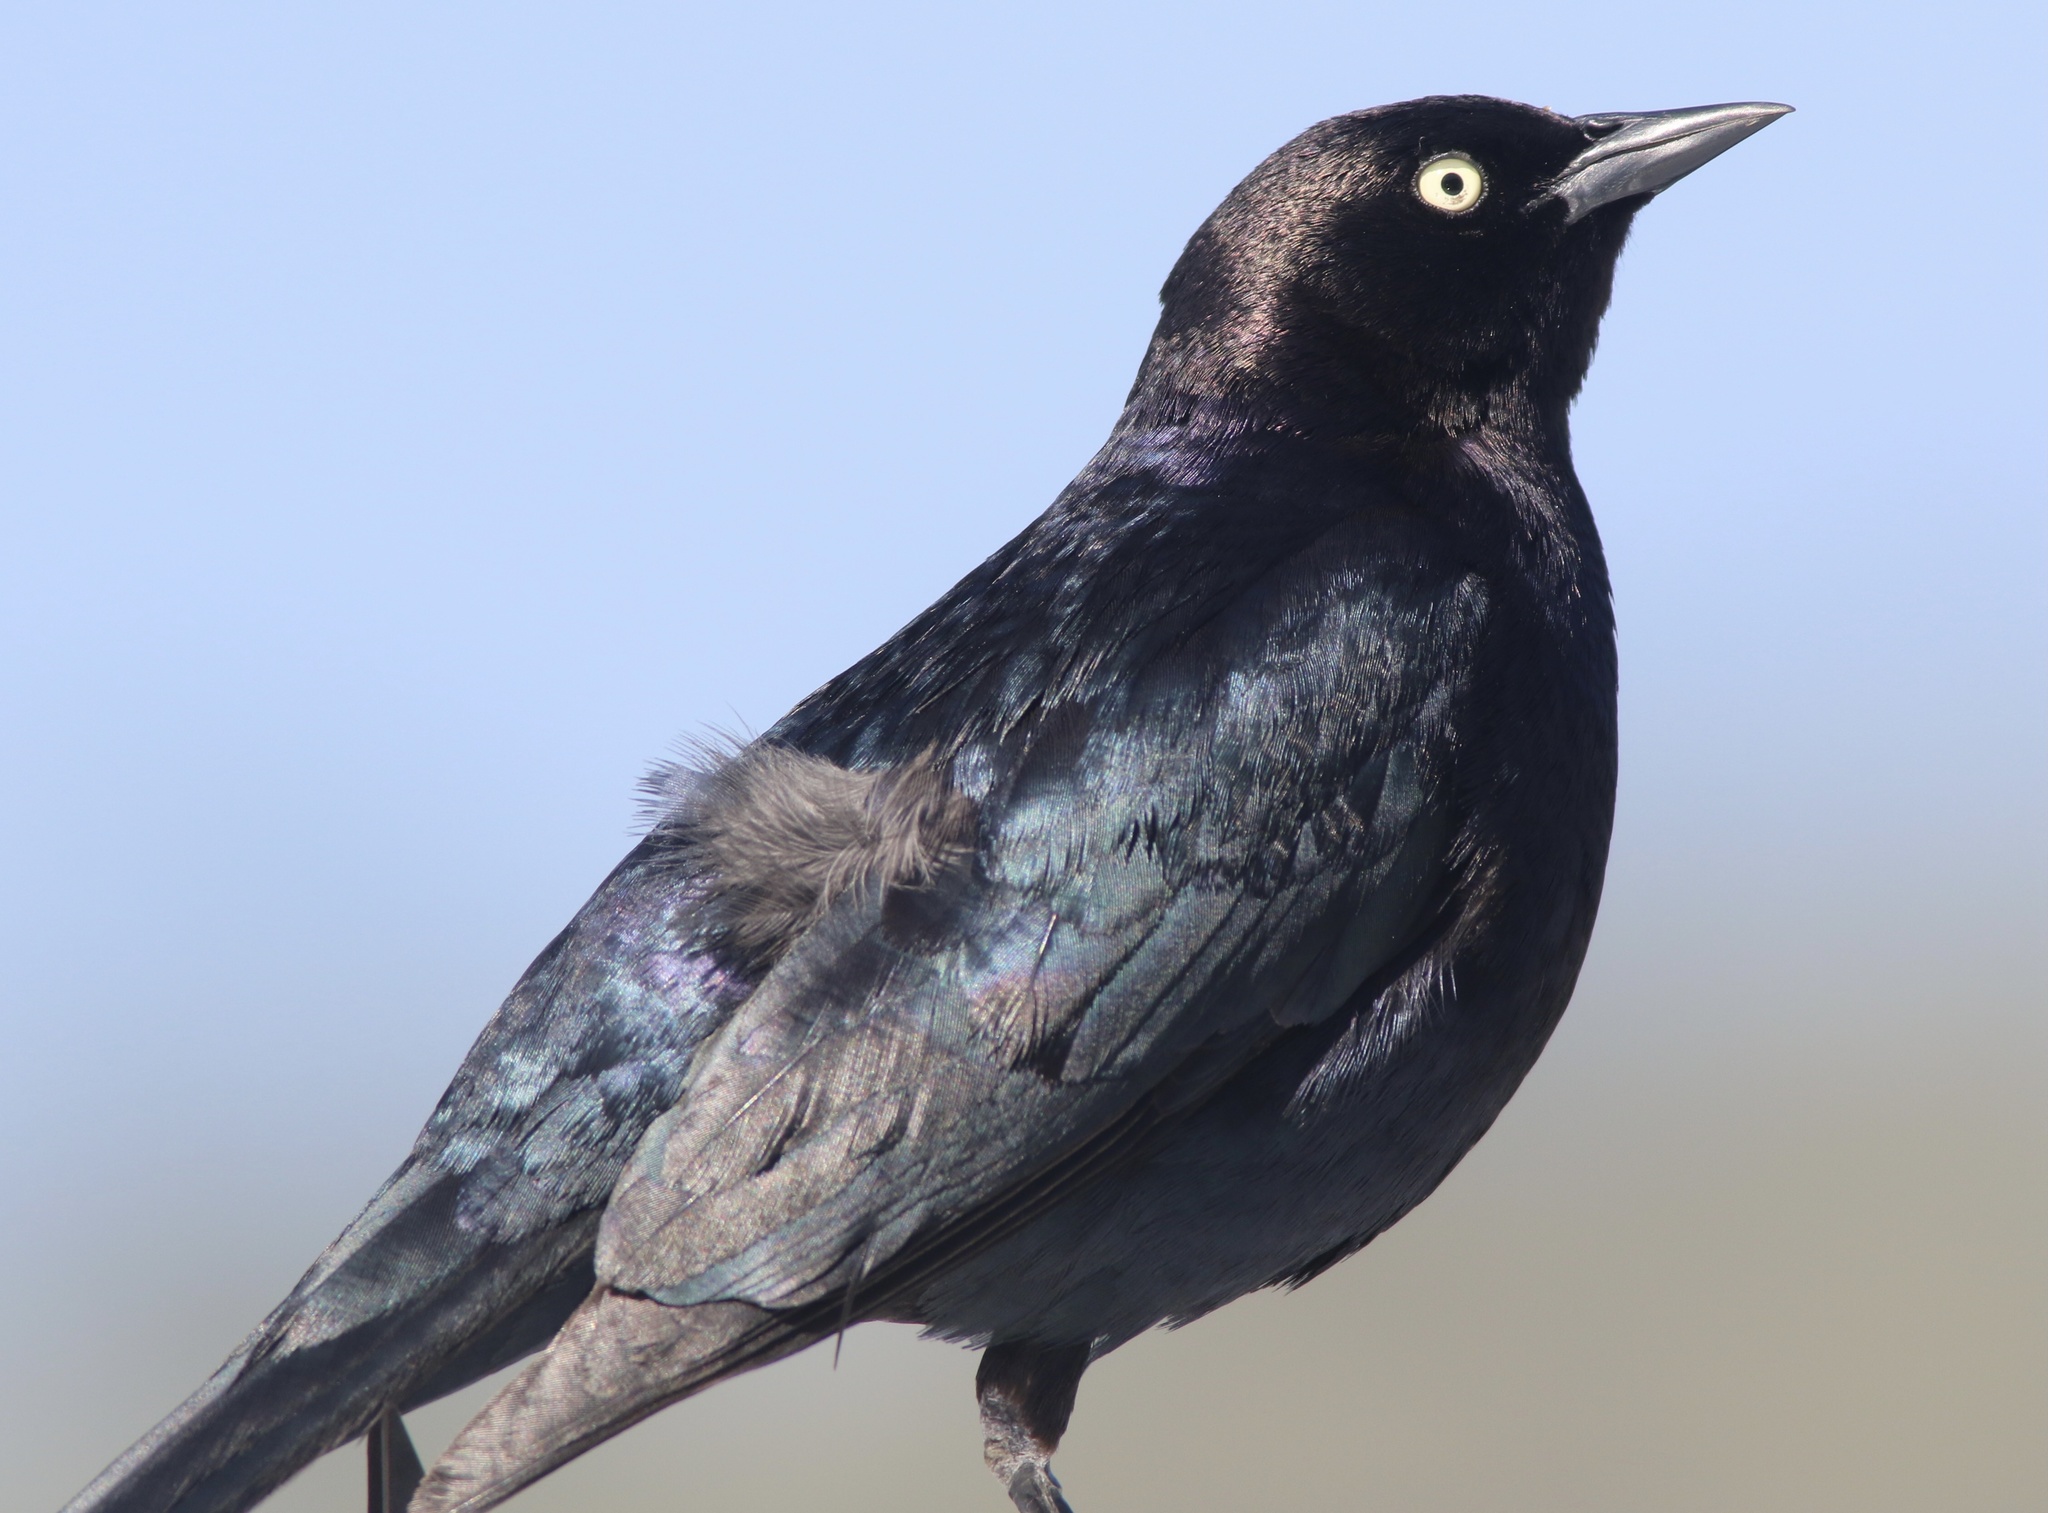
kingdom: Animalia
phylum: Chordata
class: Aves
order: Passeriformes
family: Icteridae
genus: Euphagus
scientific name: Euphagus cyanocephalus
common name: Brewer's blackbird
